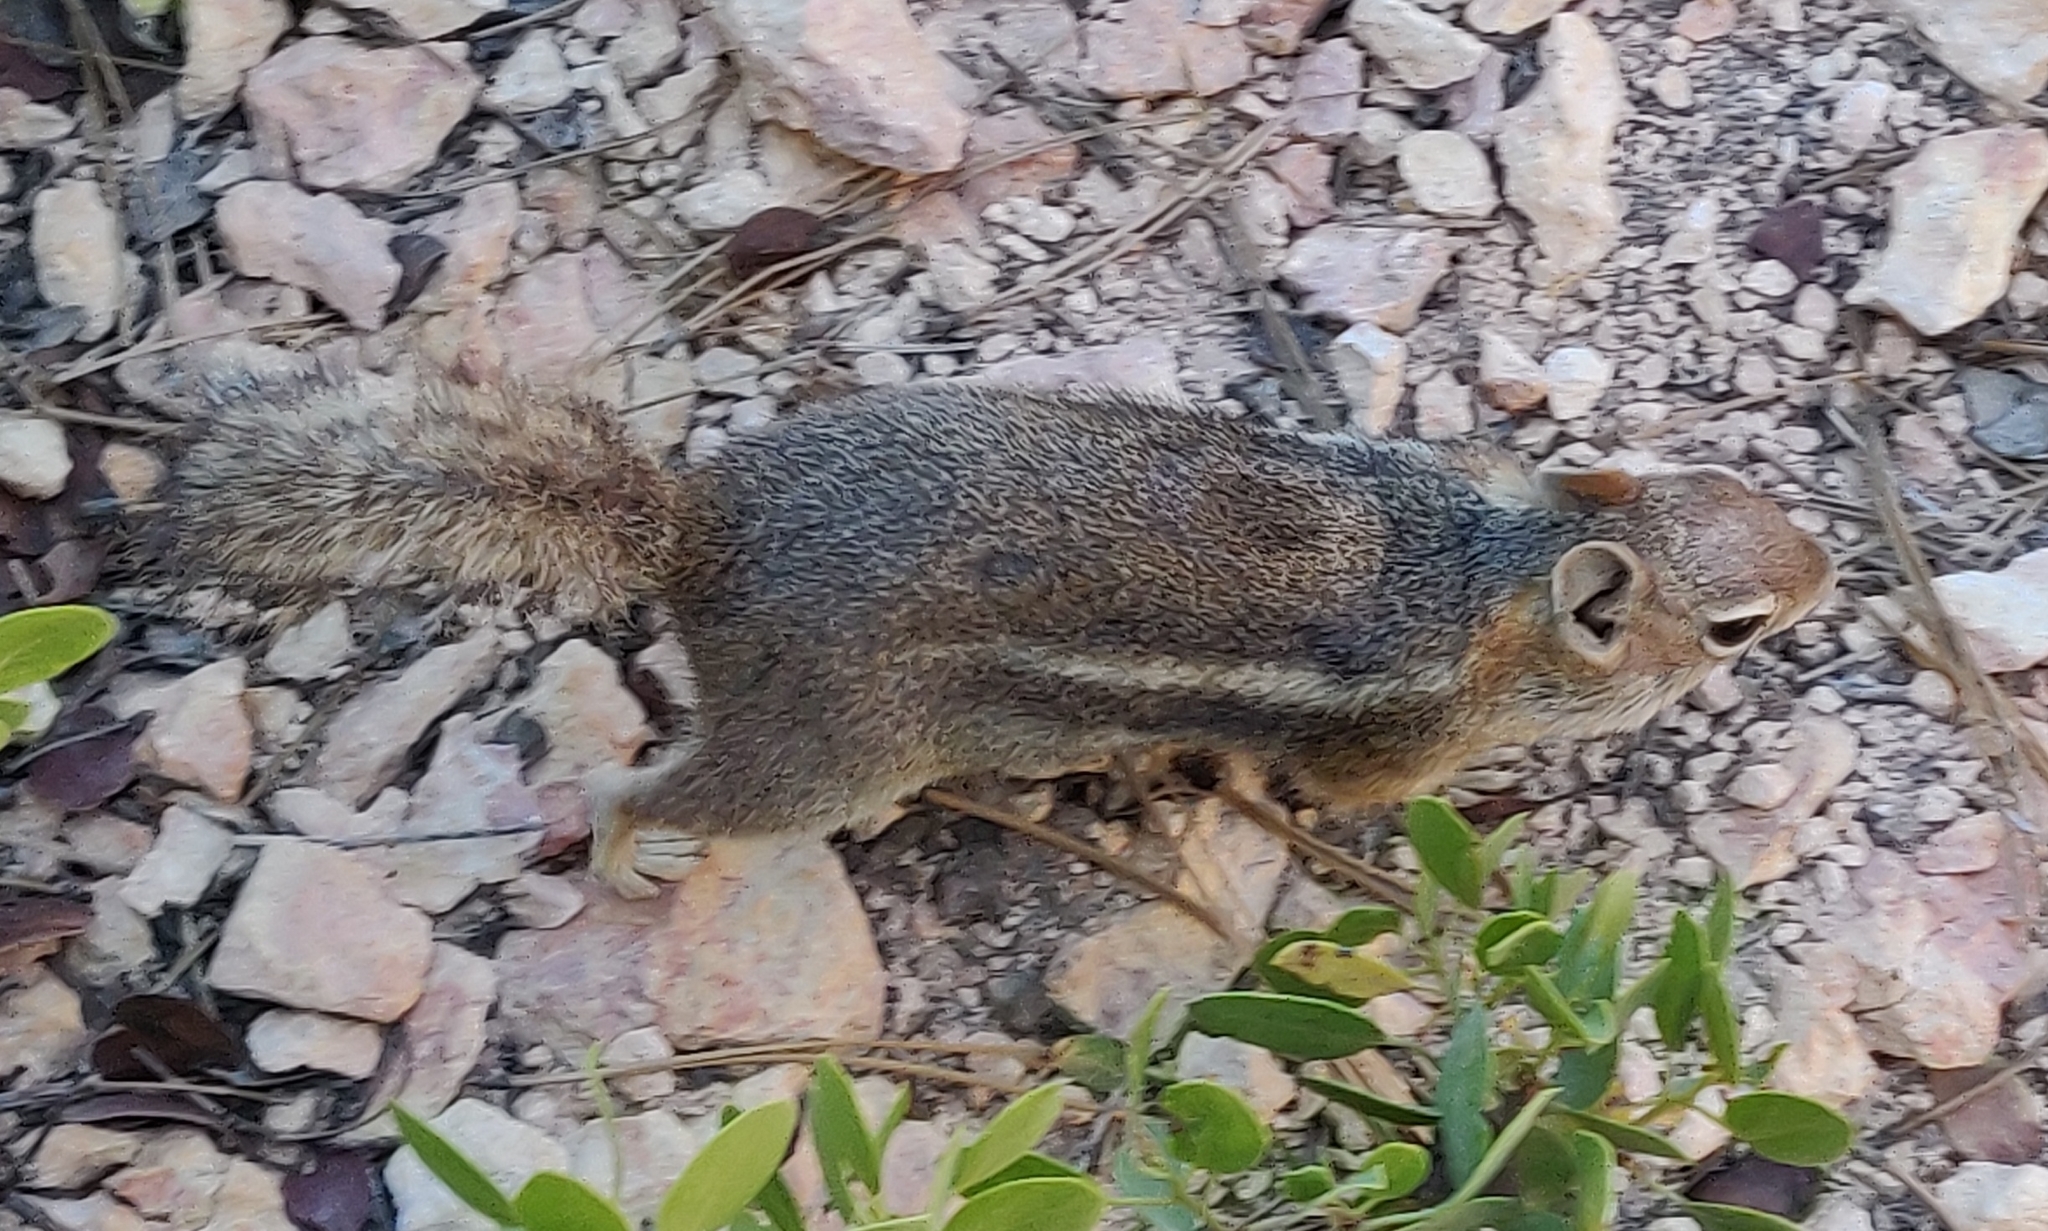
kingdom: Animalia
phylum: Chordata
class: Mammalia
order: Rodentia
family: Sciuridae
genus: Callospermophilus
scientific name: Callospermophilus lateralis
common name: Golden-mantled ground squirrel
